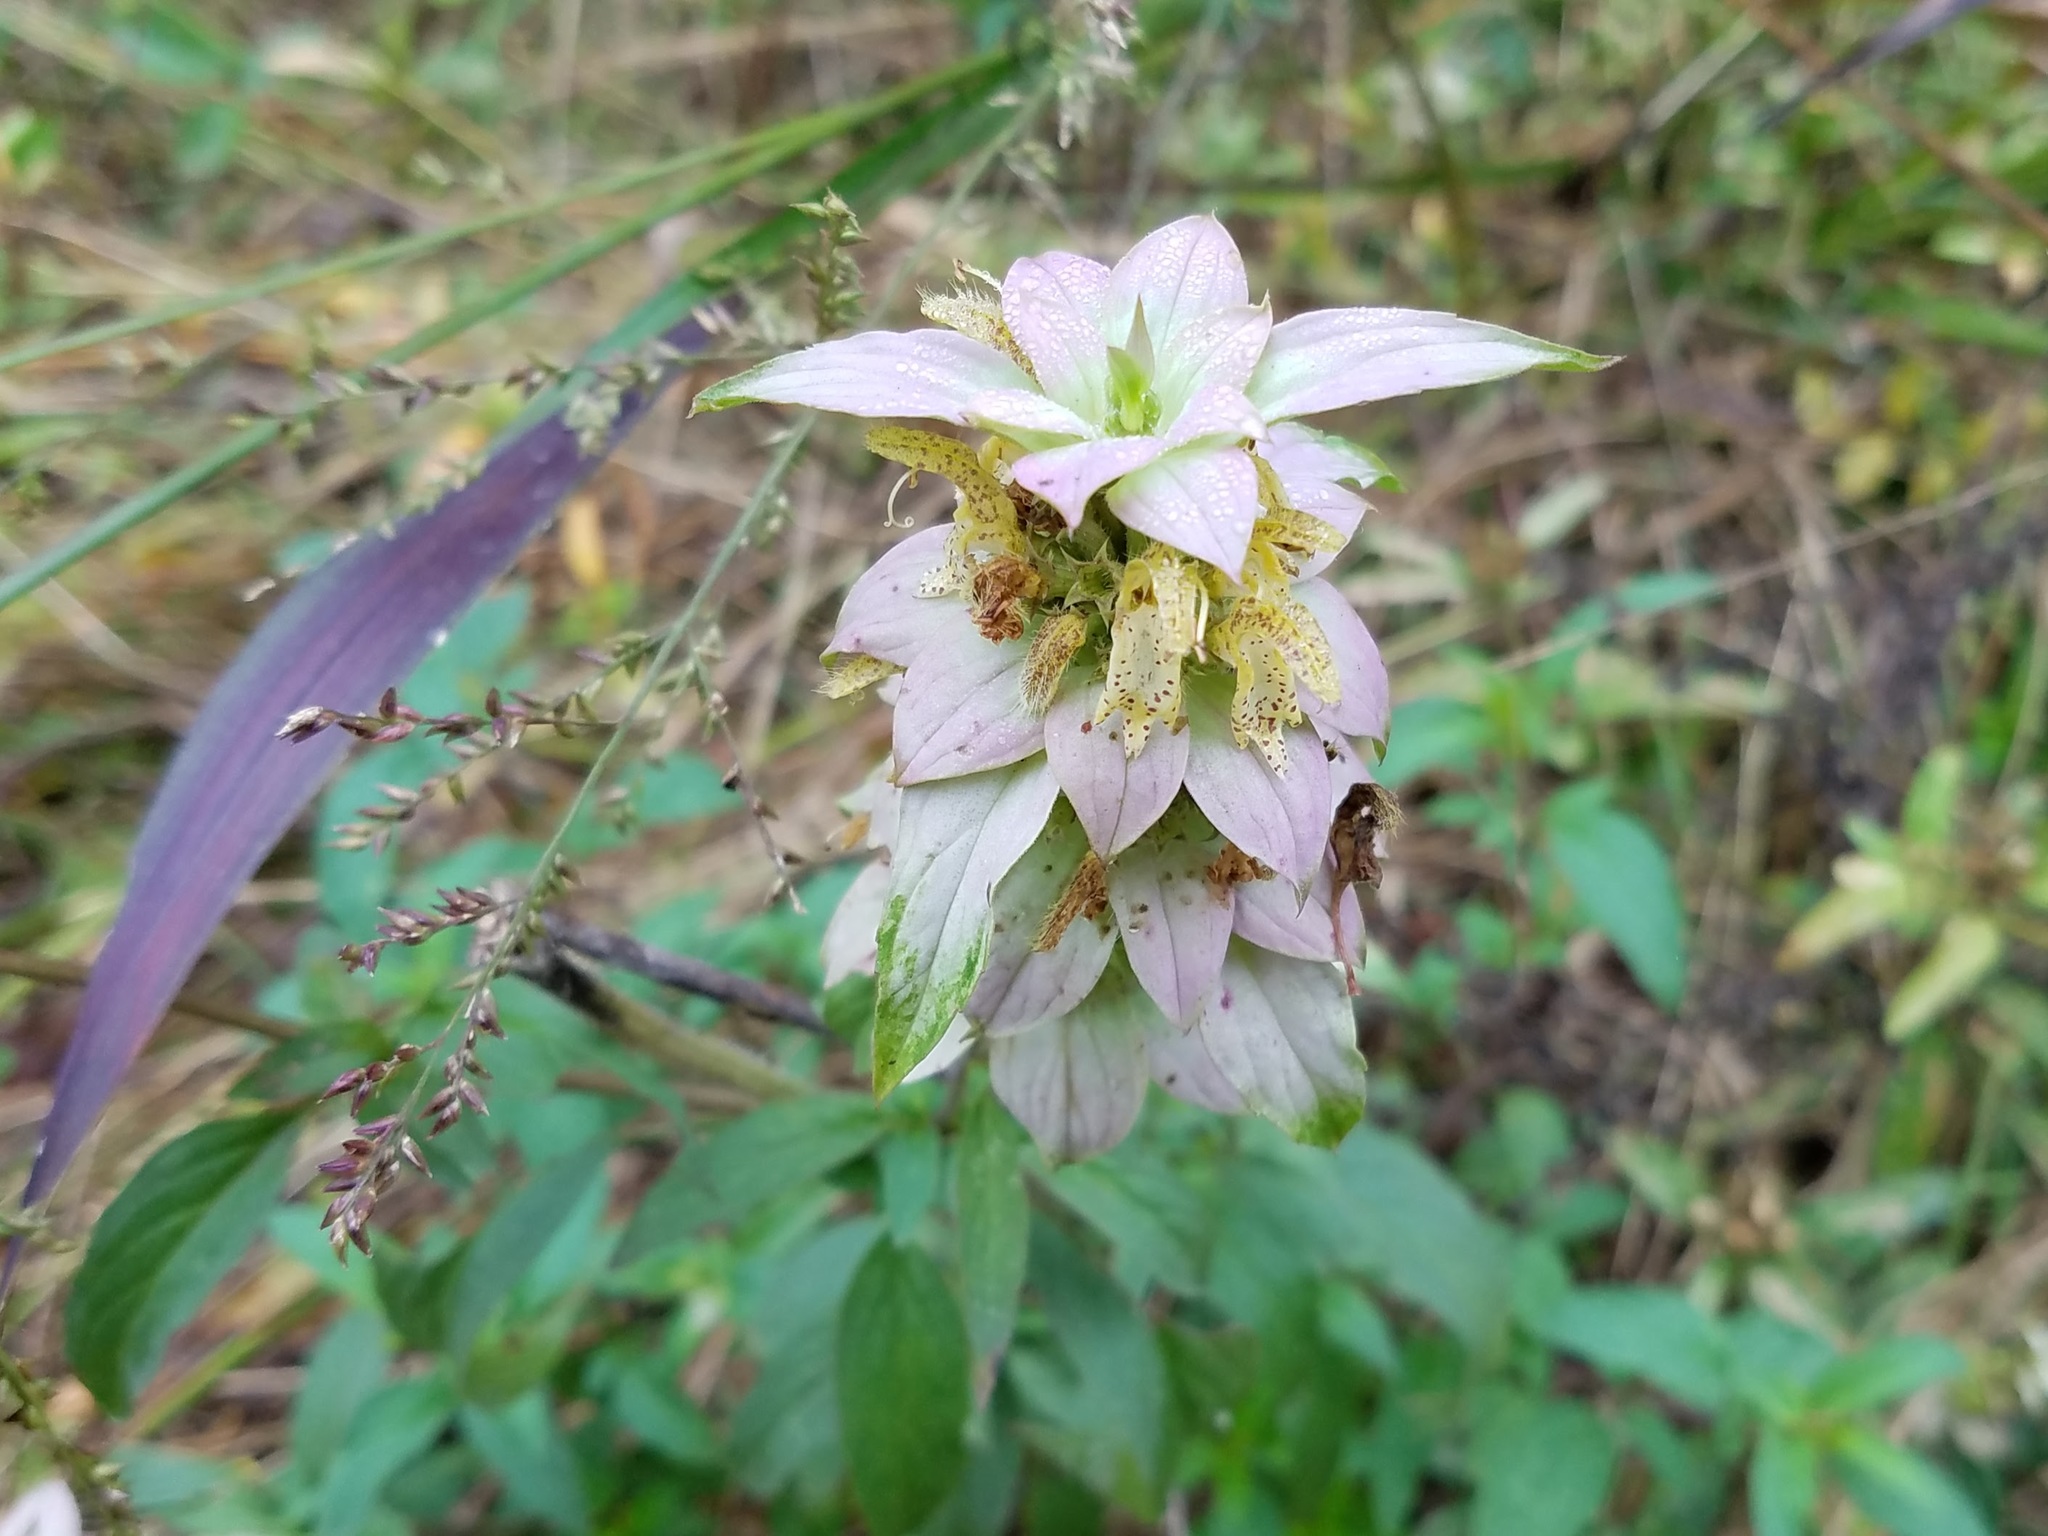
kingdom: Plantae
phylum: Tracheophyta
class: Magnoliopsida
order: Lamiales
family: Lamiaceae
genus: Monarda
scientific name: Monarda punctata
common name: Dotted monarda
